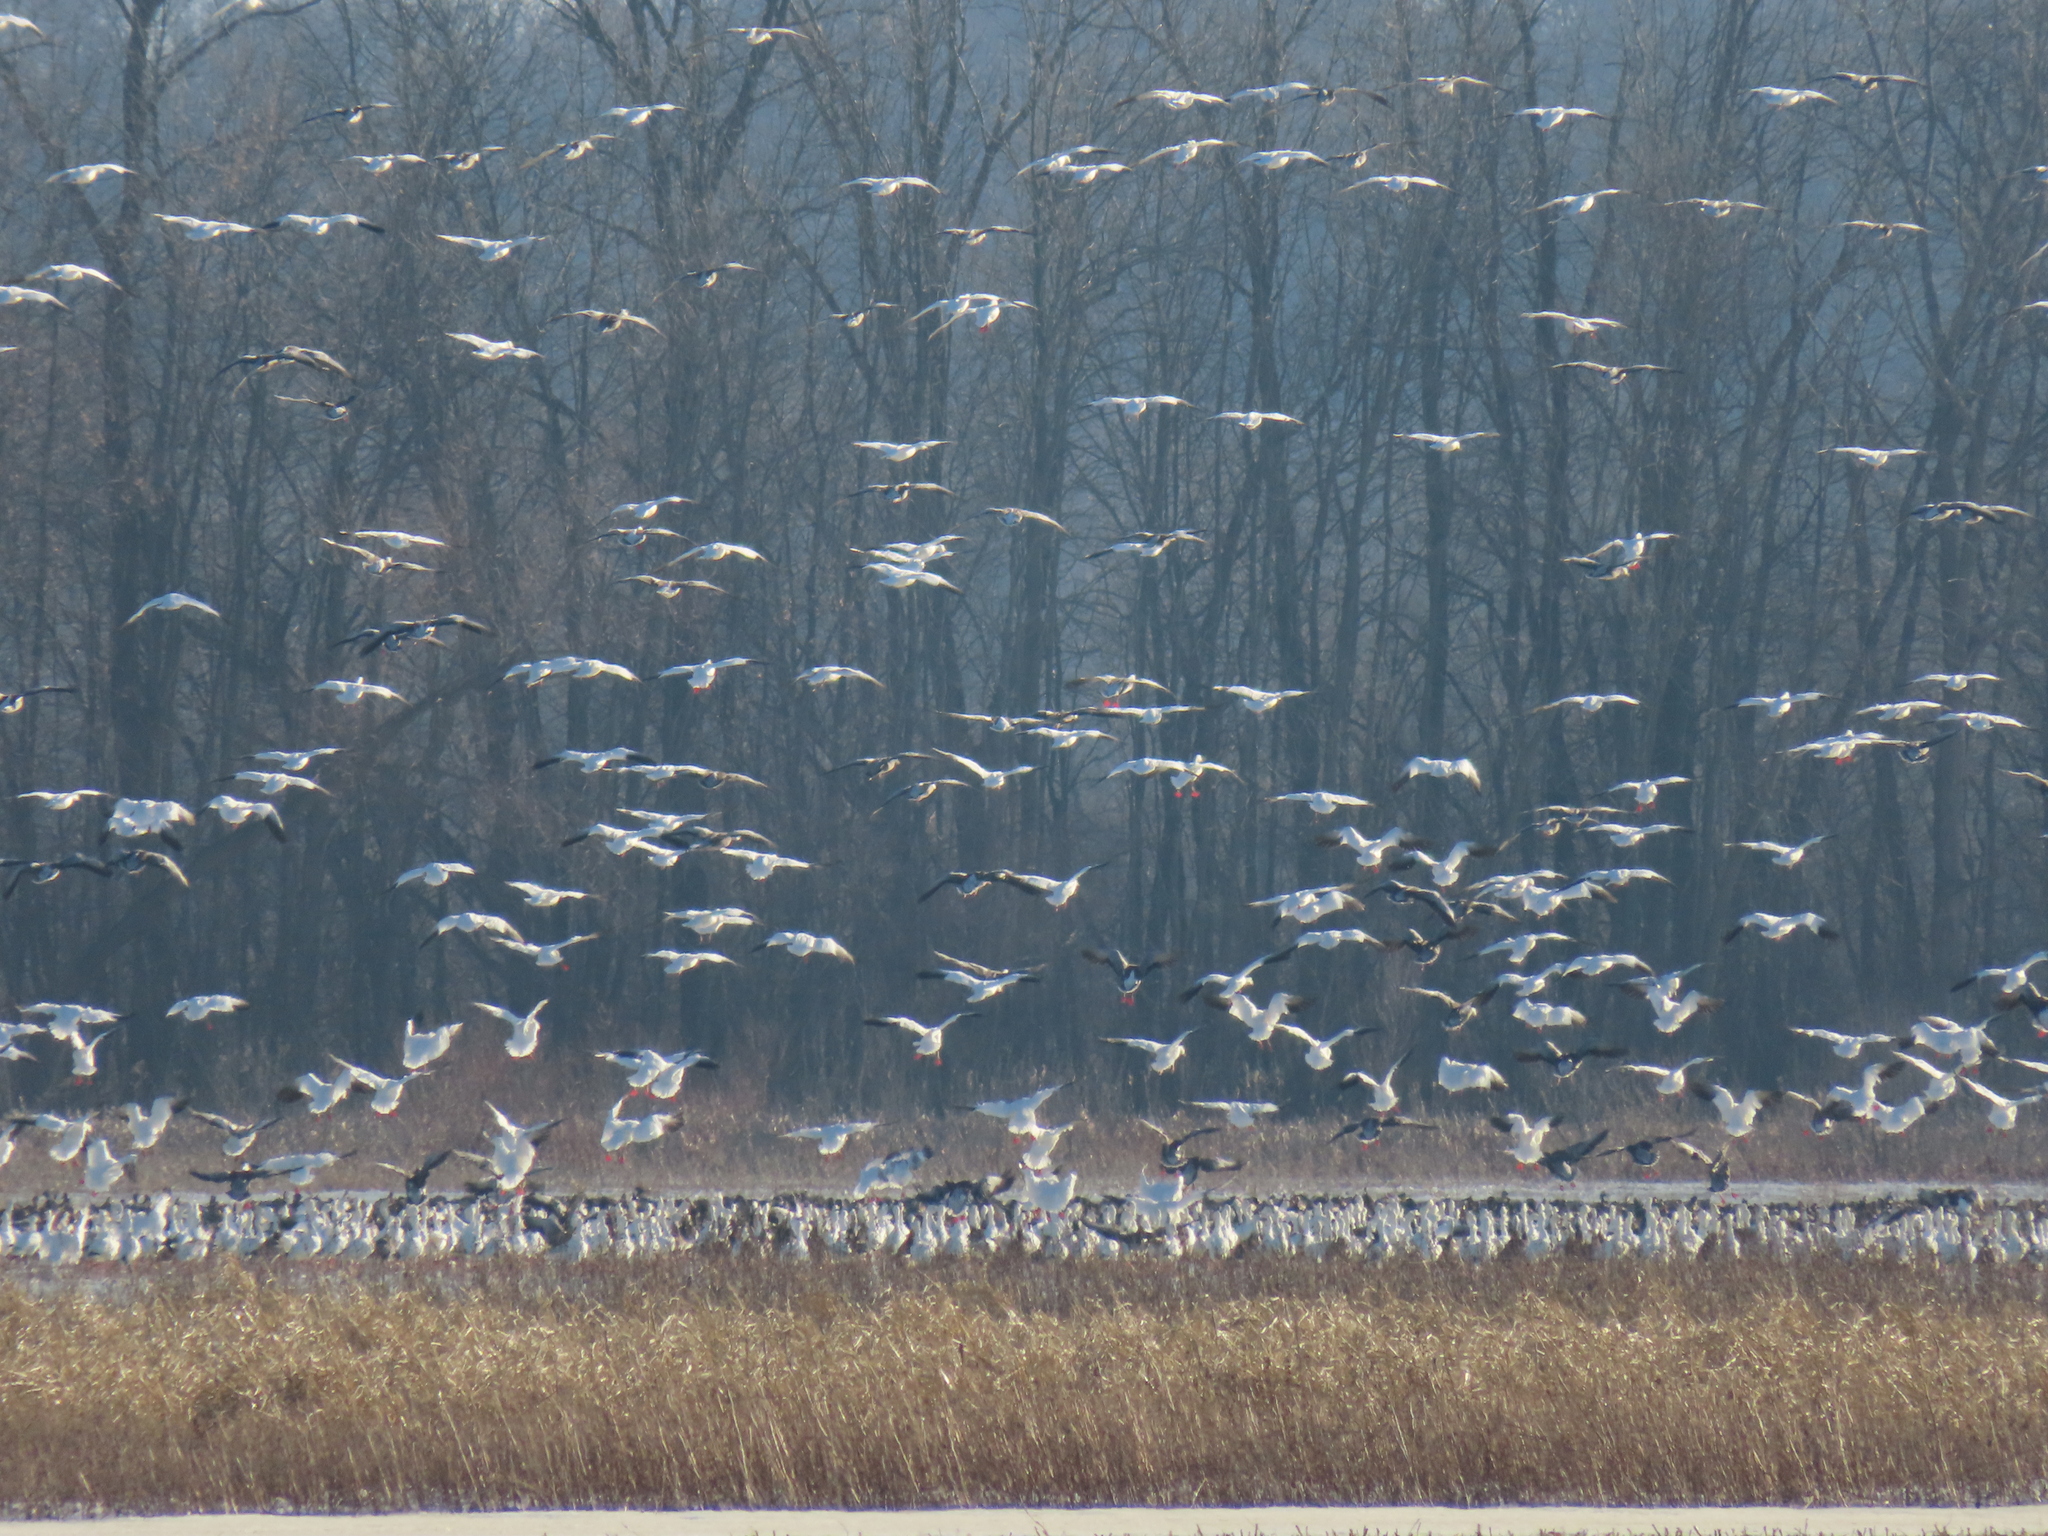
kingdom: Animalia
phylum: Chordata
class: Aves
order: Anseriformes
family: Anatidae
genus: Anser
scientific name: Anser caerulescens
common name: Snow goose
